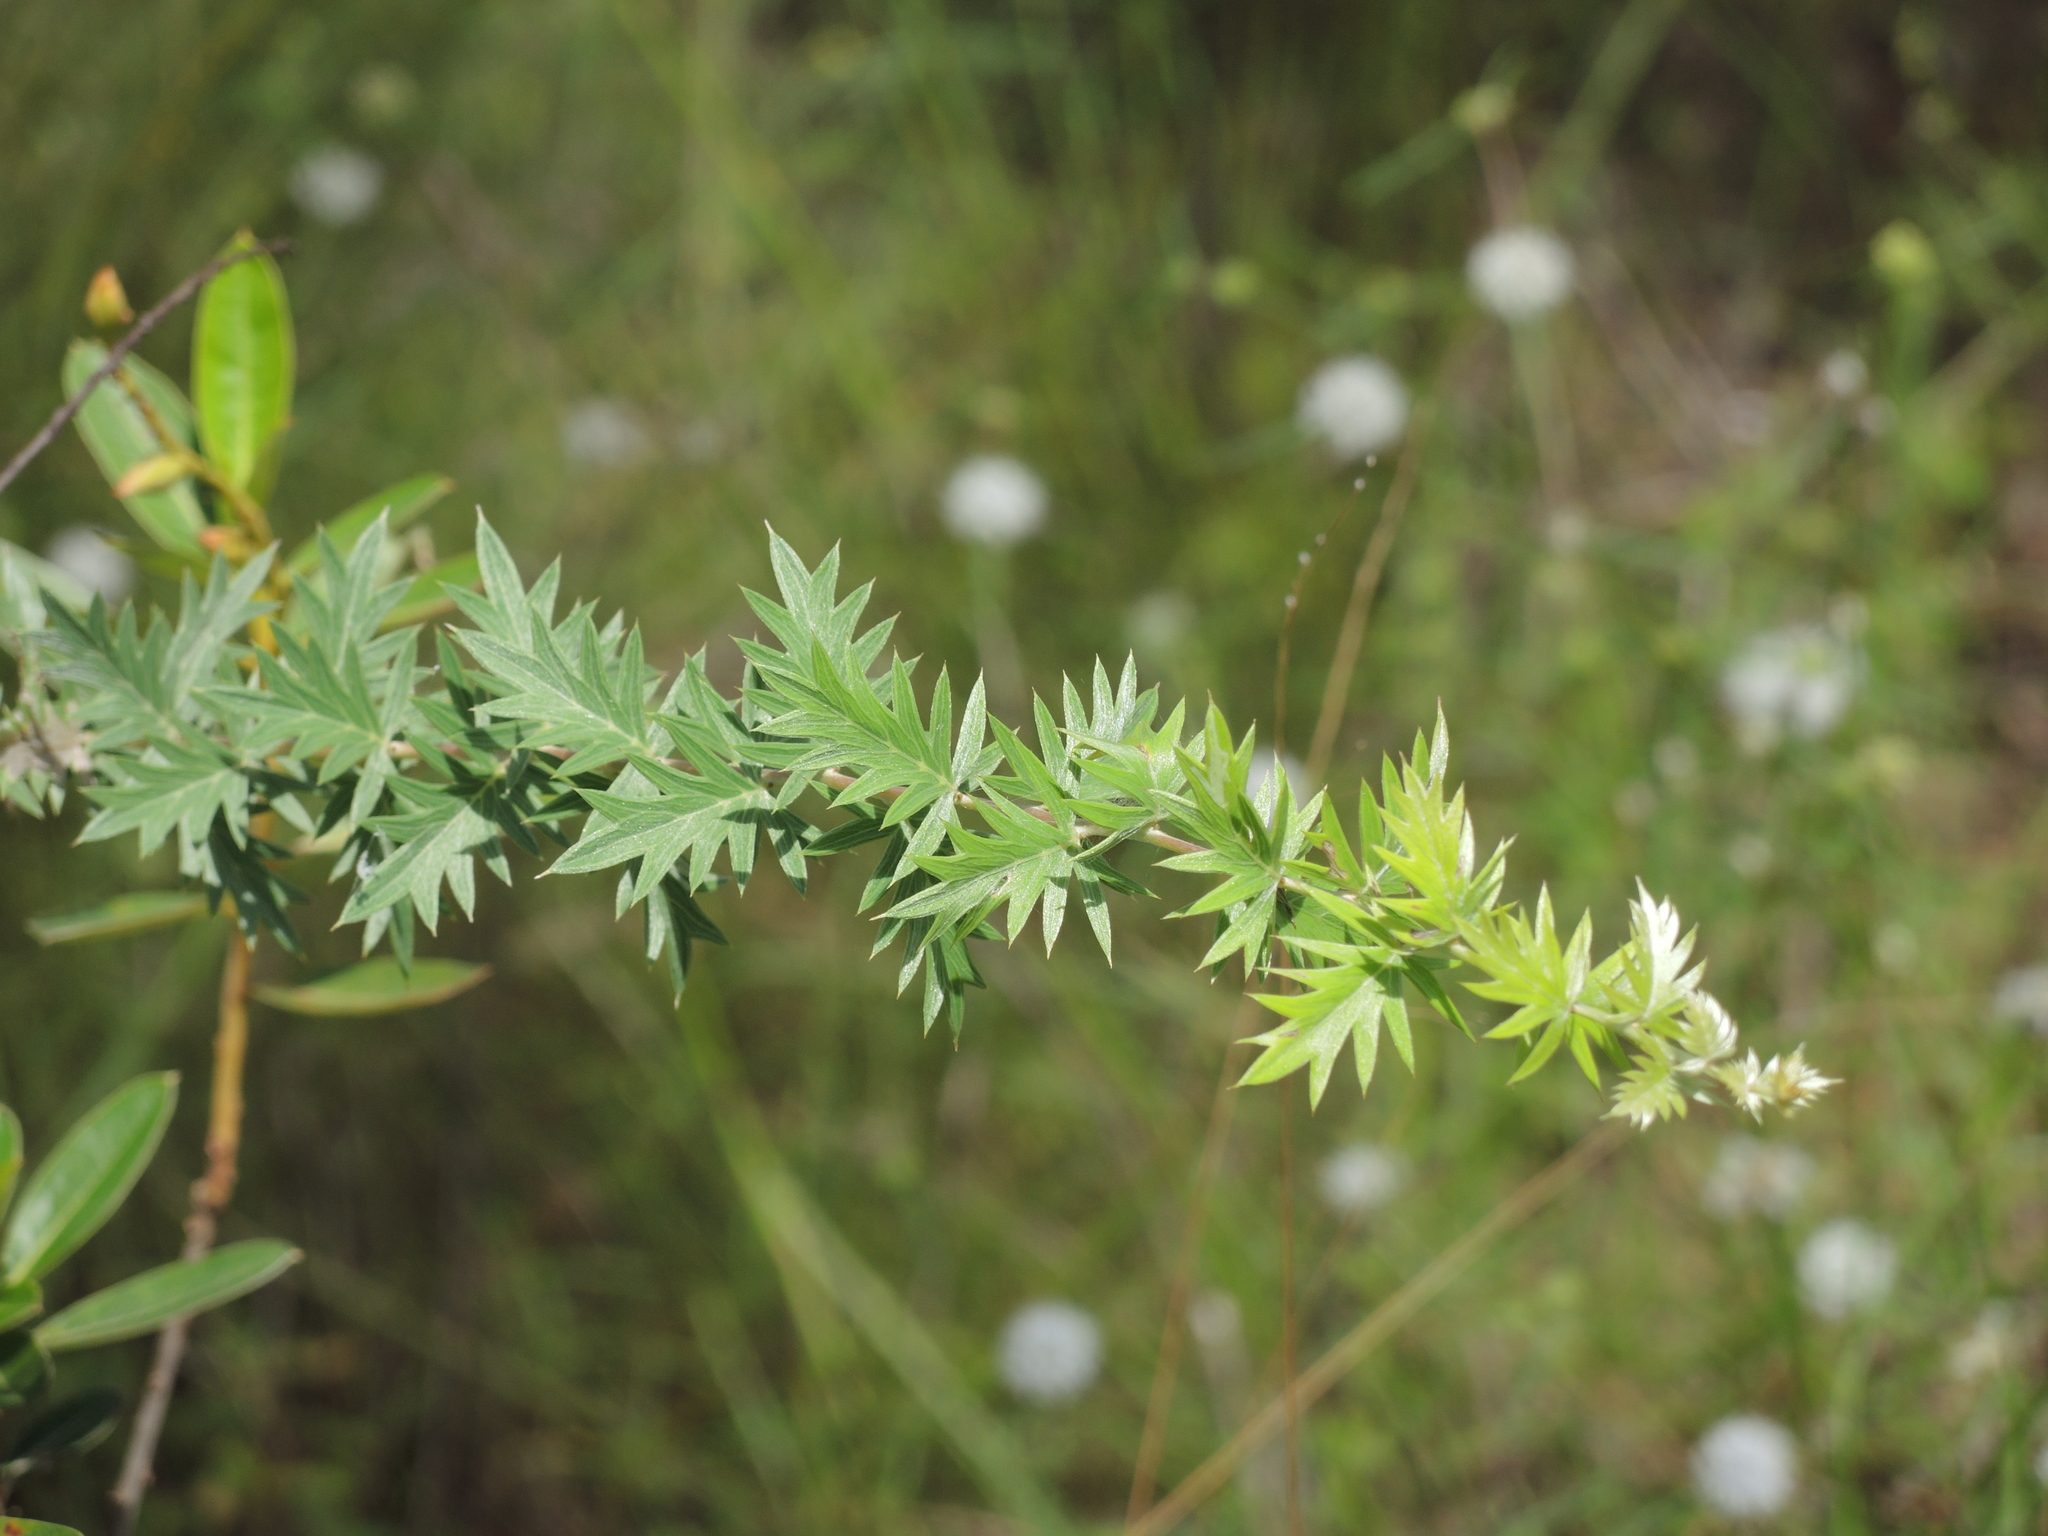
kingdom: Plantae
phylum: Tracheophyta
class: Magnoliopsida
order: Proteales
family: Proteaceae
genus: Grevillea
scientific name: Grevillea pungens
